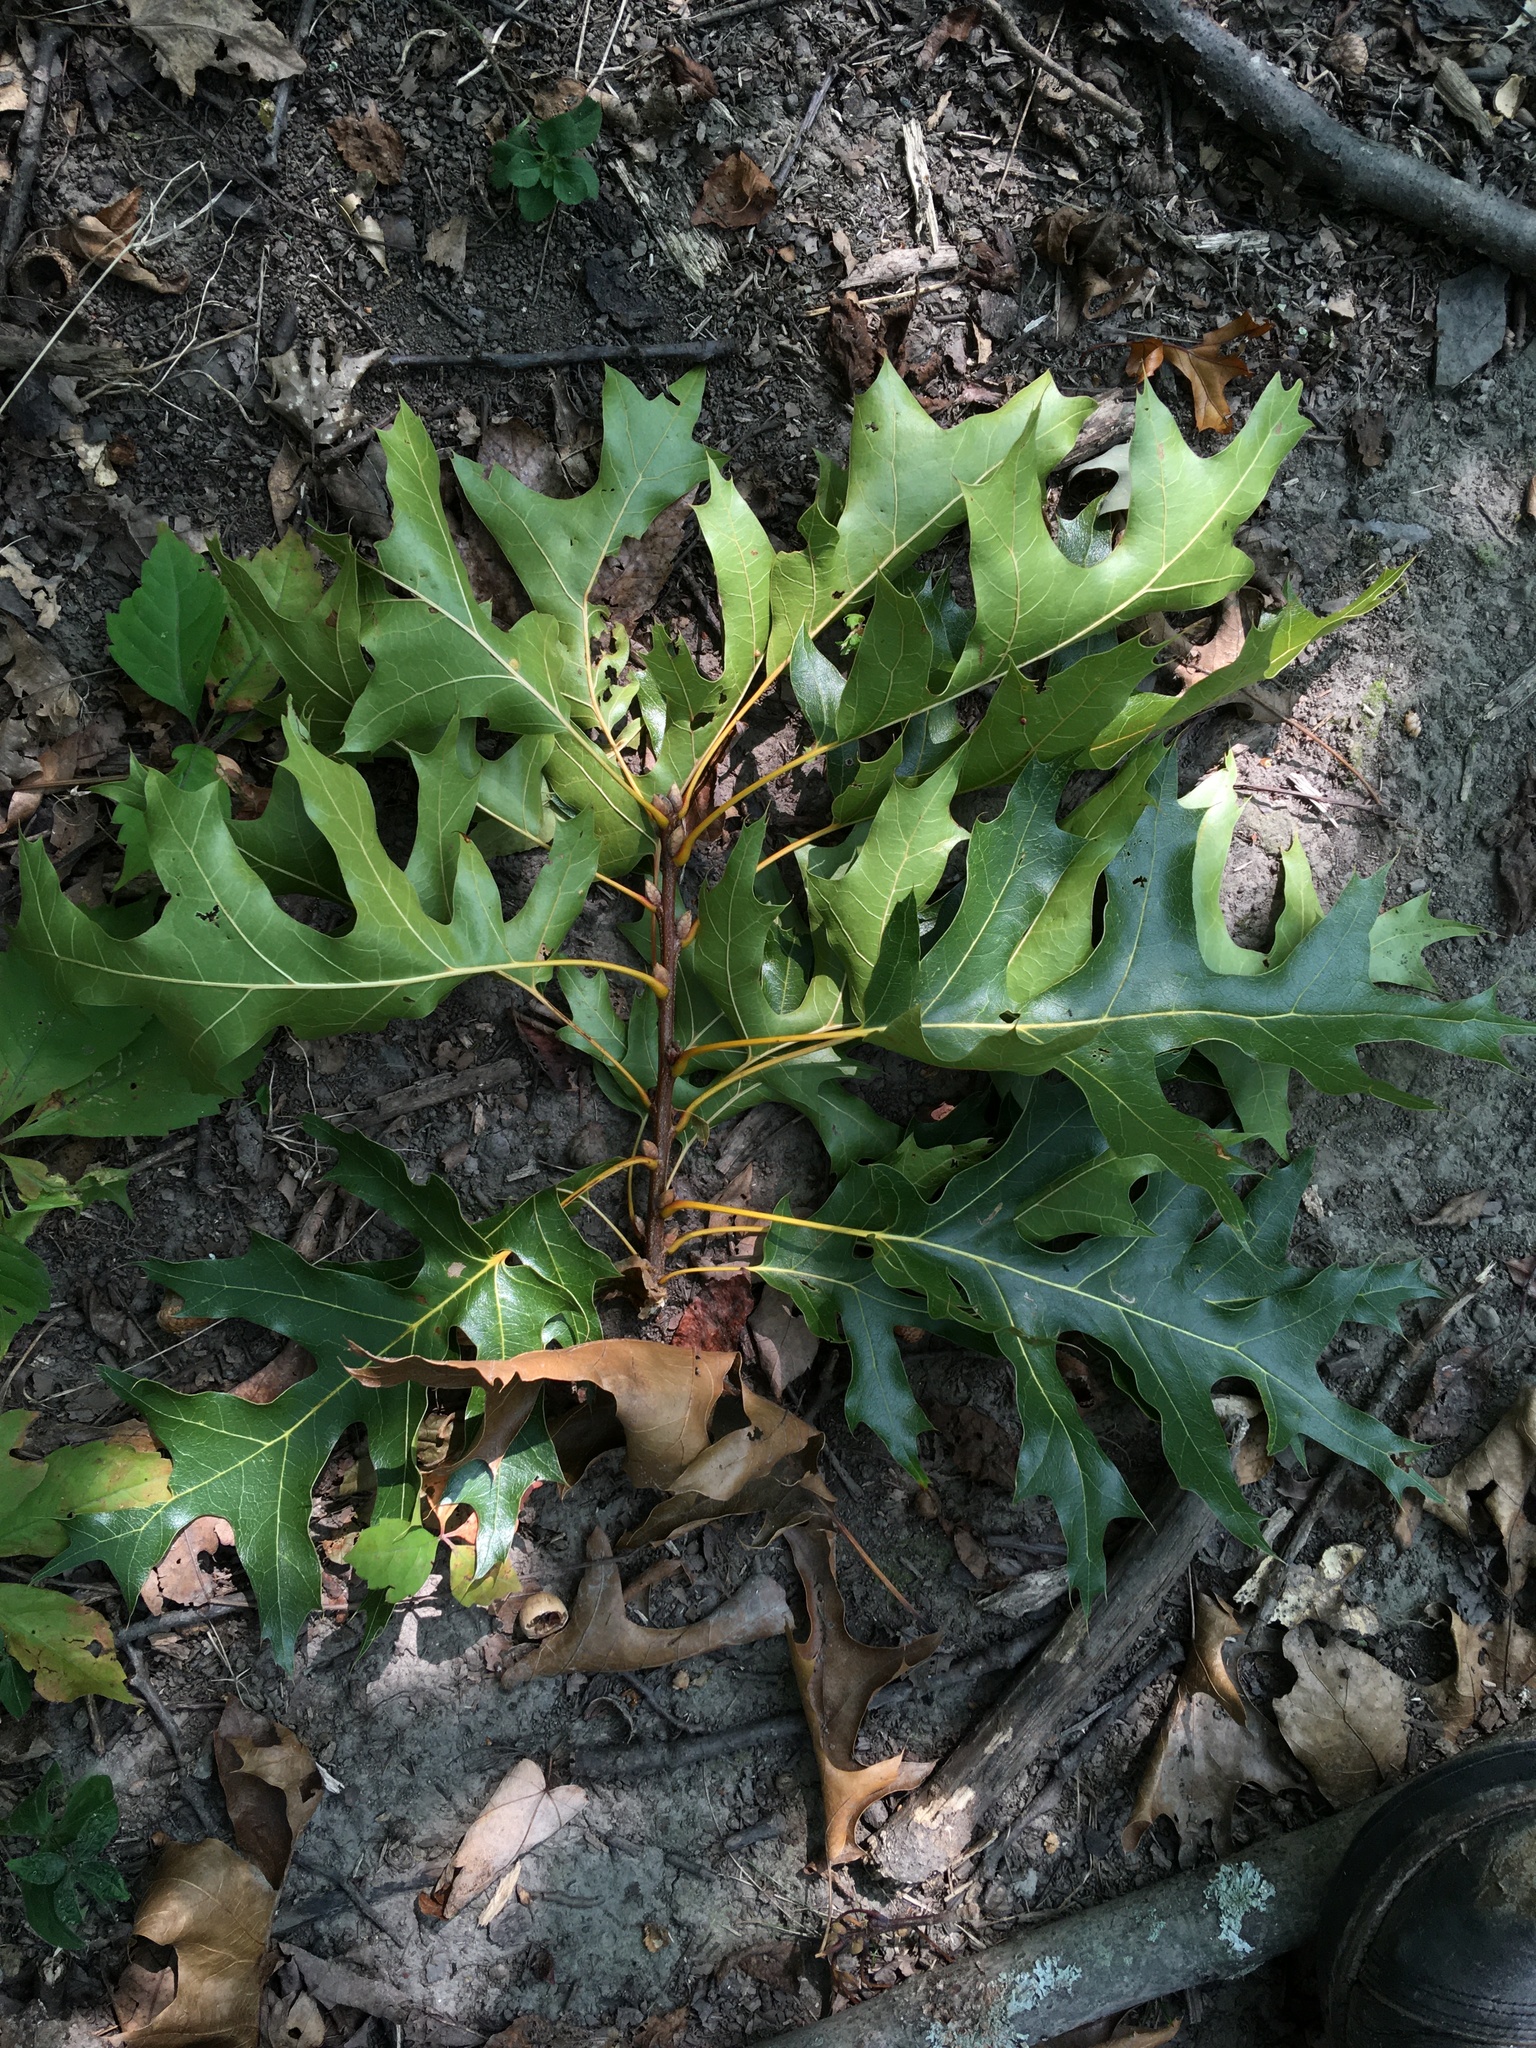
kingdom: Plantae
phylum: Tracheophyta
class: Magnoliopsida
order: Fagales
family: Fagaceae
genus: Quercus
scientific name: Quercus velutina
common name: Black oak
